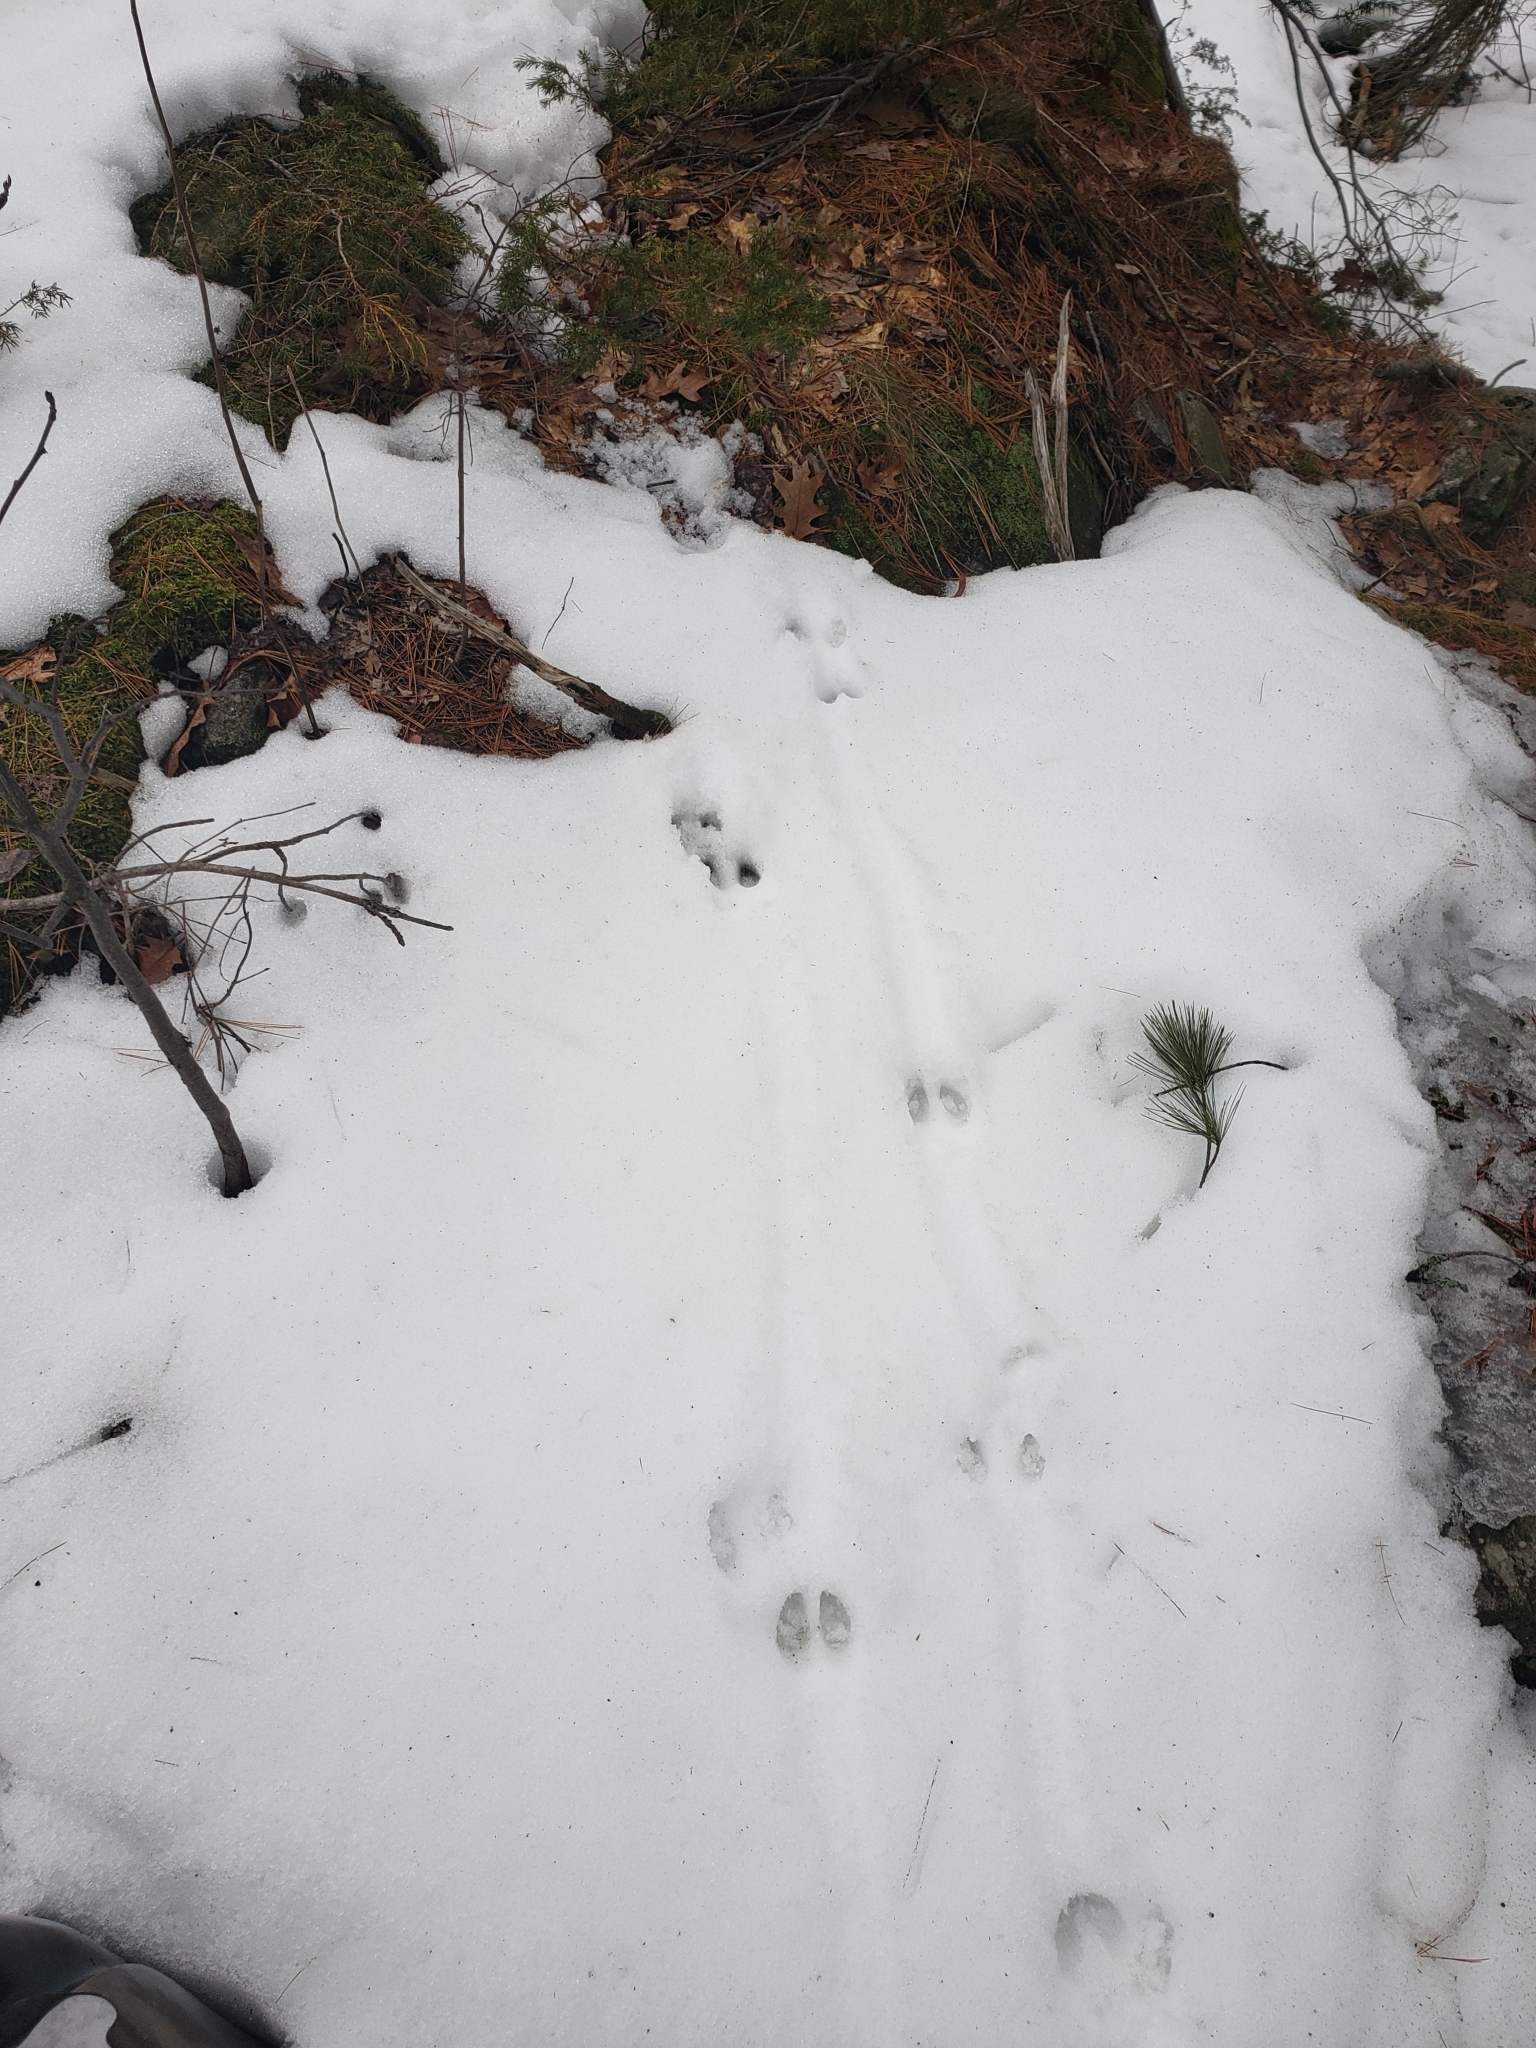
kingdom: Animalia
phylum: Chordata
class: Mammalia
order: Artiodactyla
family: Cervidae
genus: Odocoileus
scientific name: Odocoileus virginianus
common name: White-tailed deer
